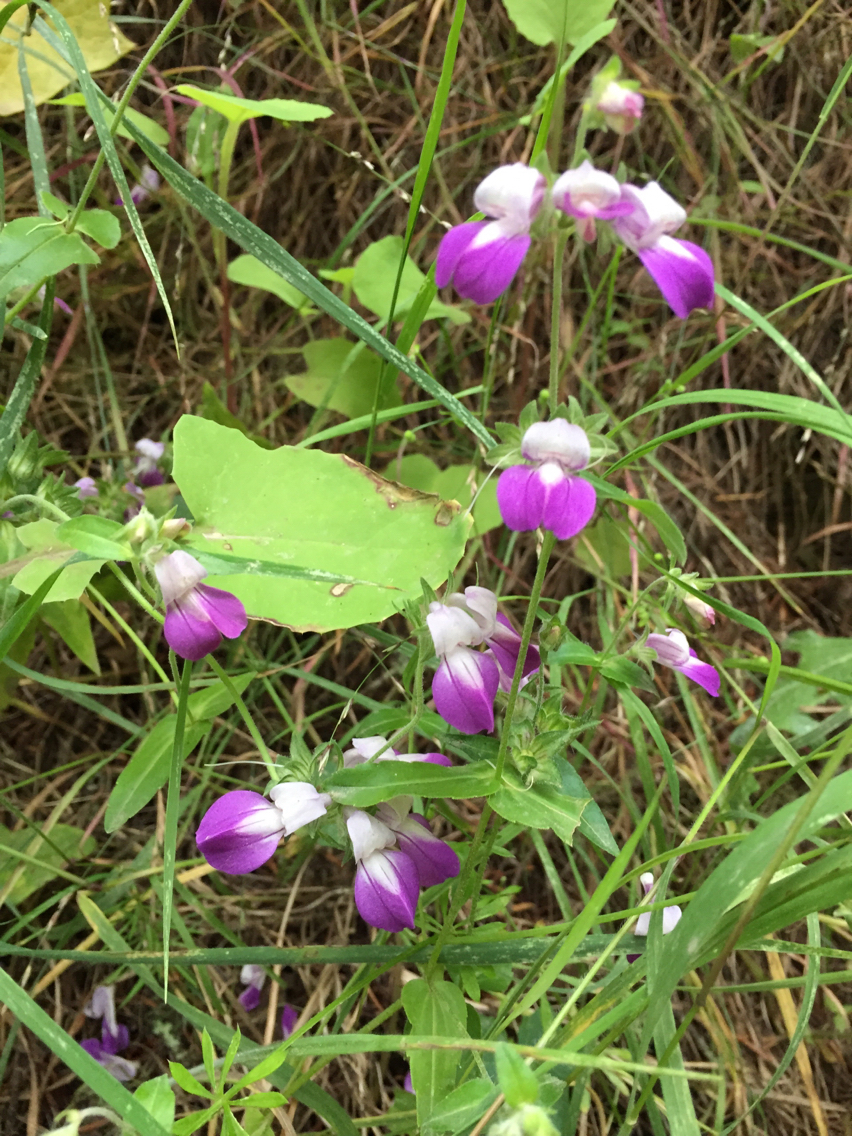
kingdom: Plantae
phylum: Tracheophyta
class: Magnoliopsida
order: Lamiales
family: Plantaginaceae
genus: Collinsia
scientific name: Collinsia heterophylla
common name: Chinese-houses
